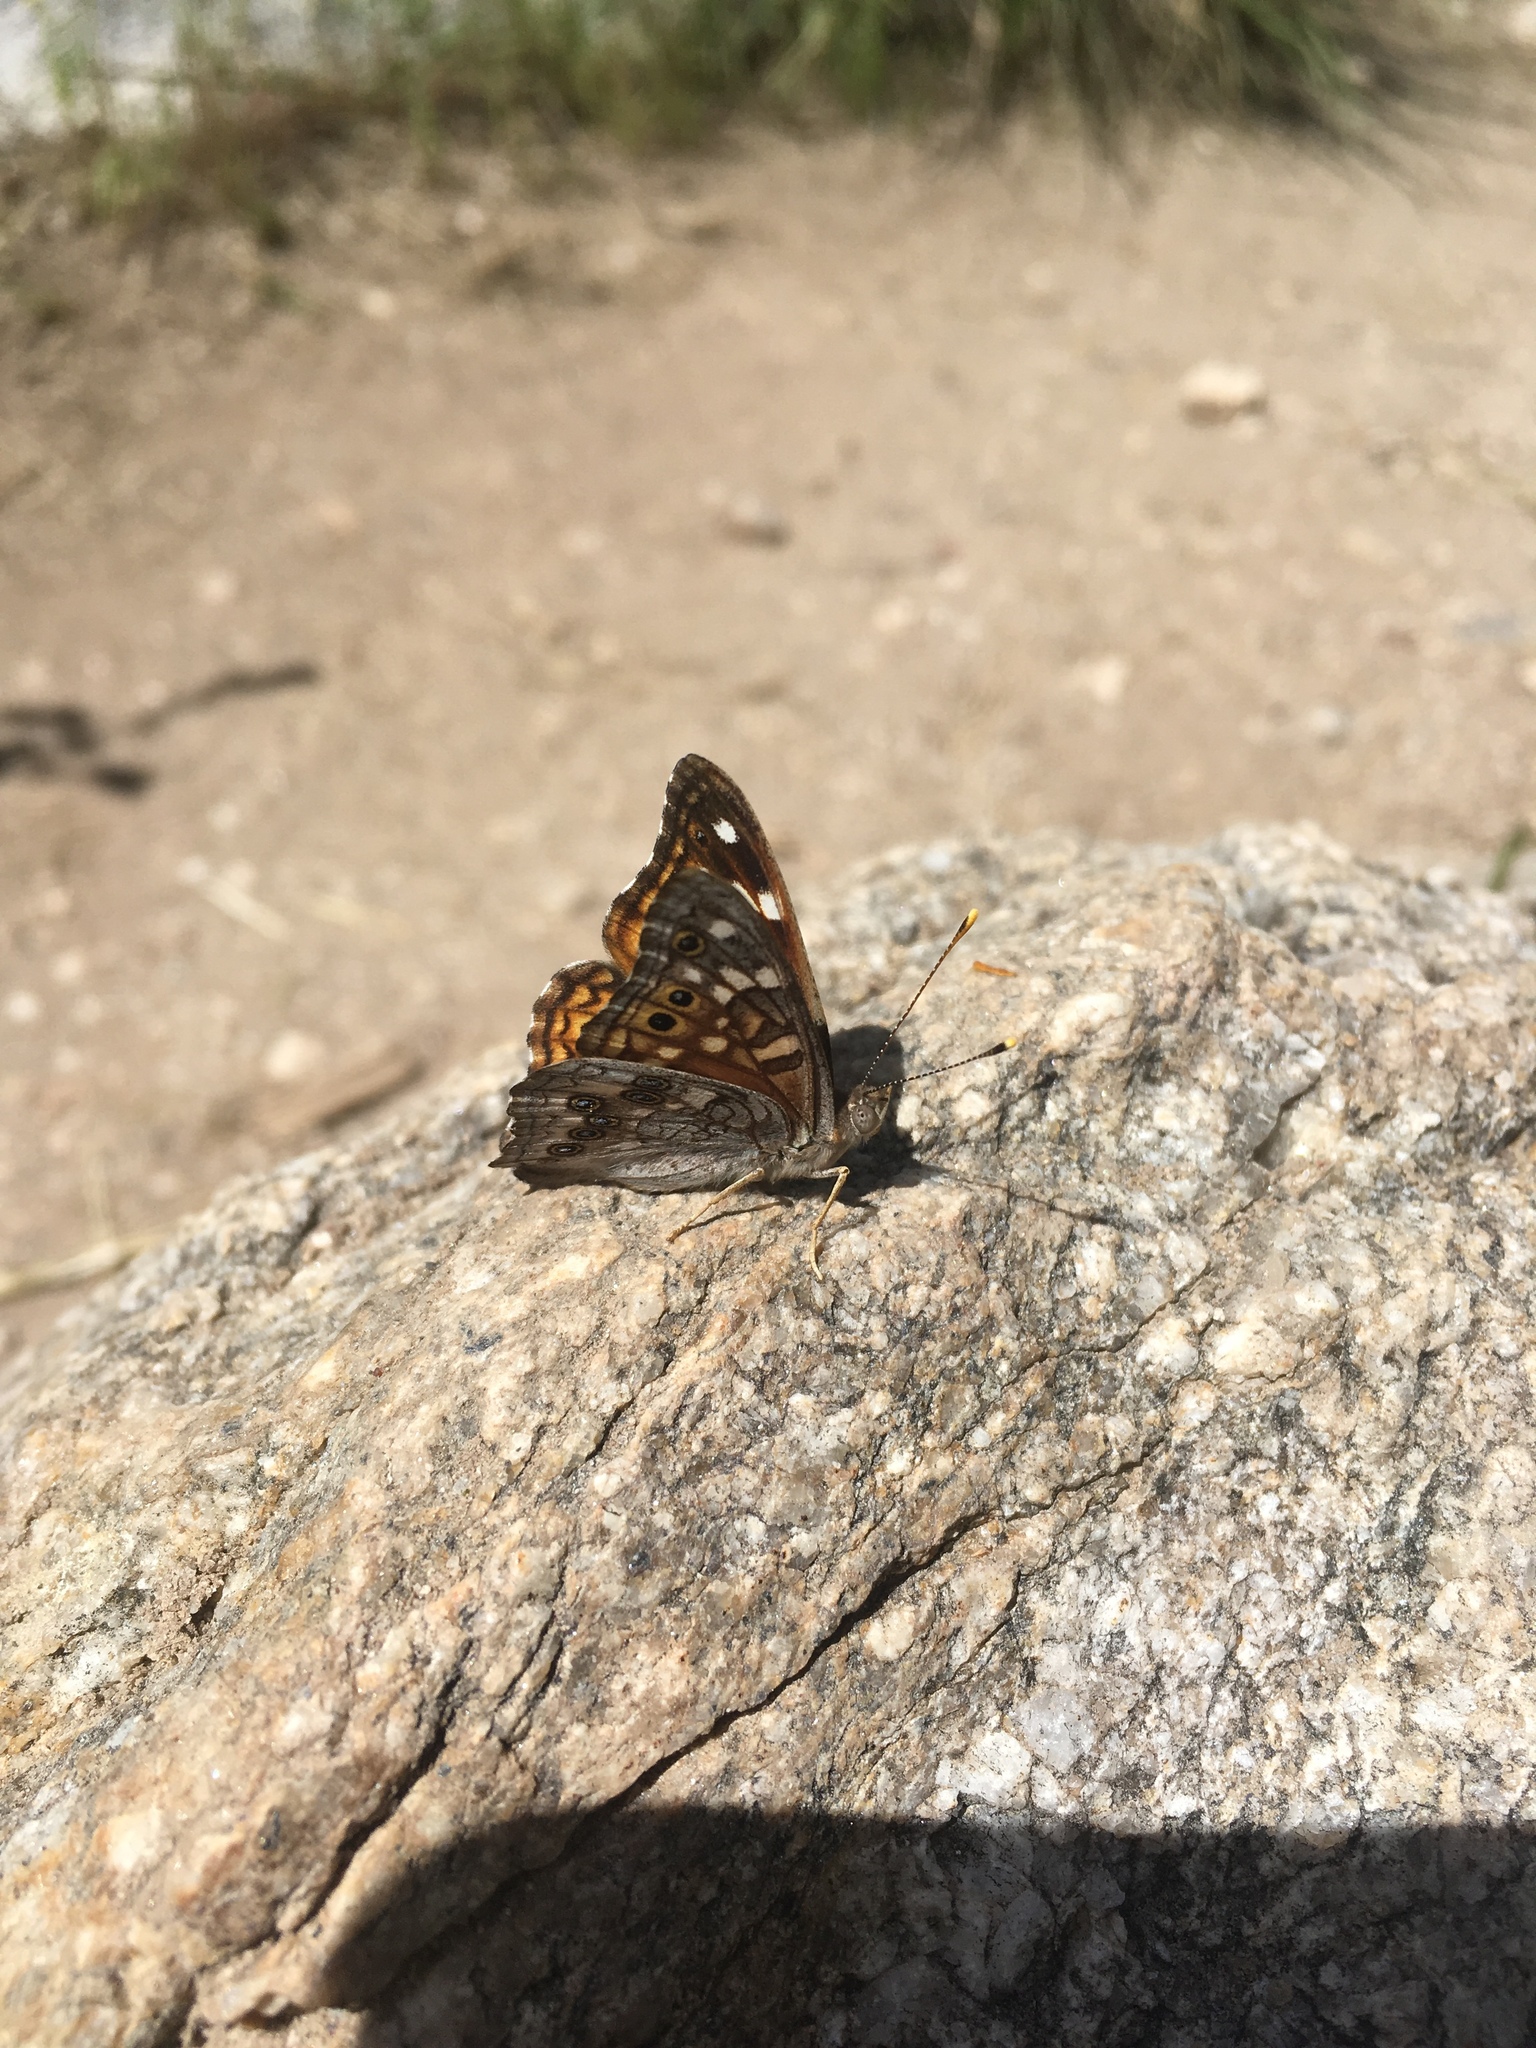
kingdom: Animalia
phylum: Arthropoda
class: Insecta
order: Lepidoptera
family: Nymphalidae
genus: Asterocampa
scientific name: Asterocampa leilia
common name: Empress leilia
